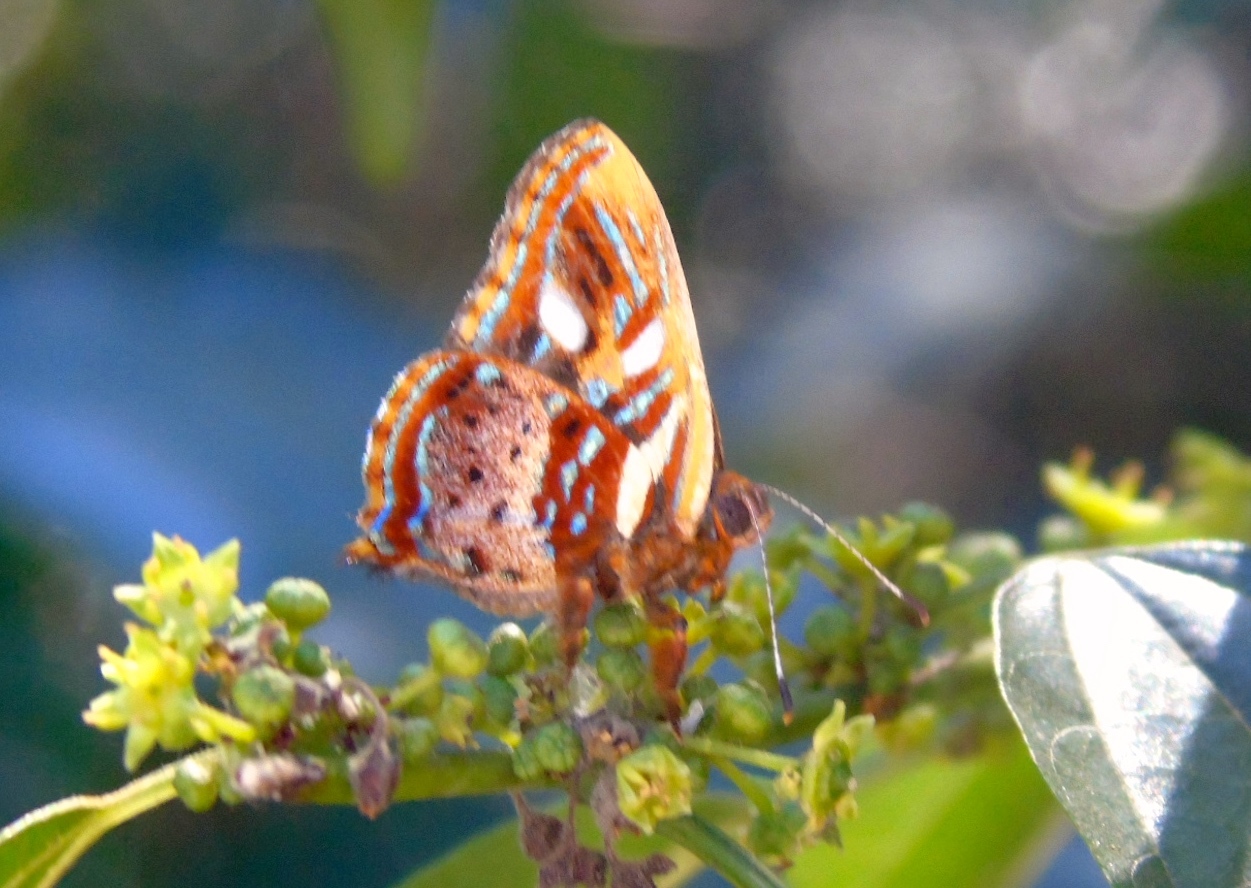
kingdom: Animalia
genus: Anteros
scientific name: Anteros carausius
